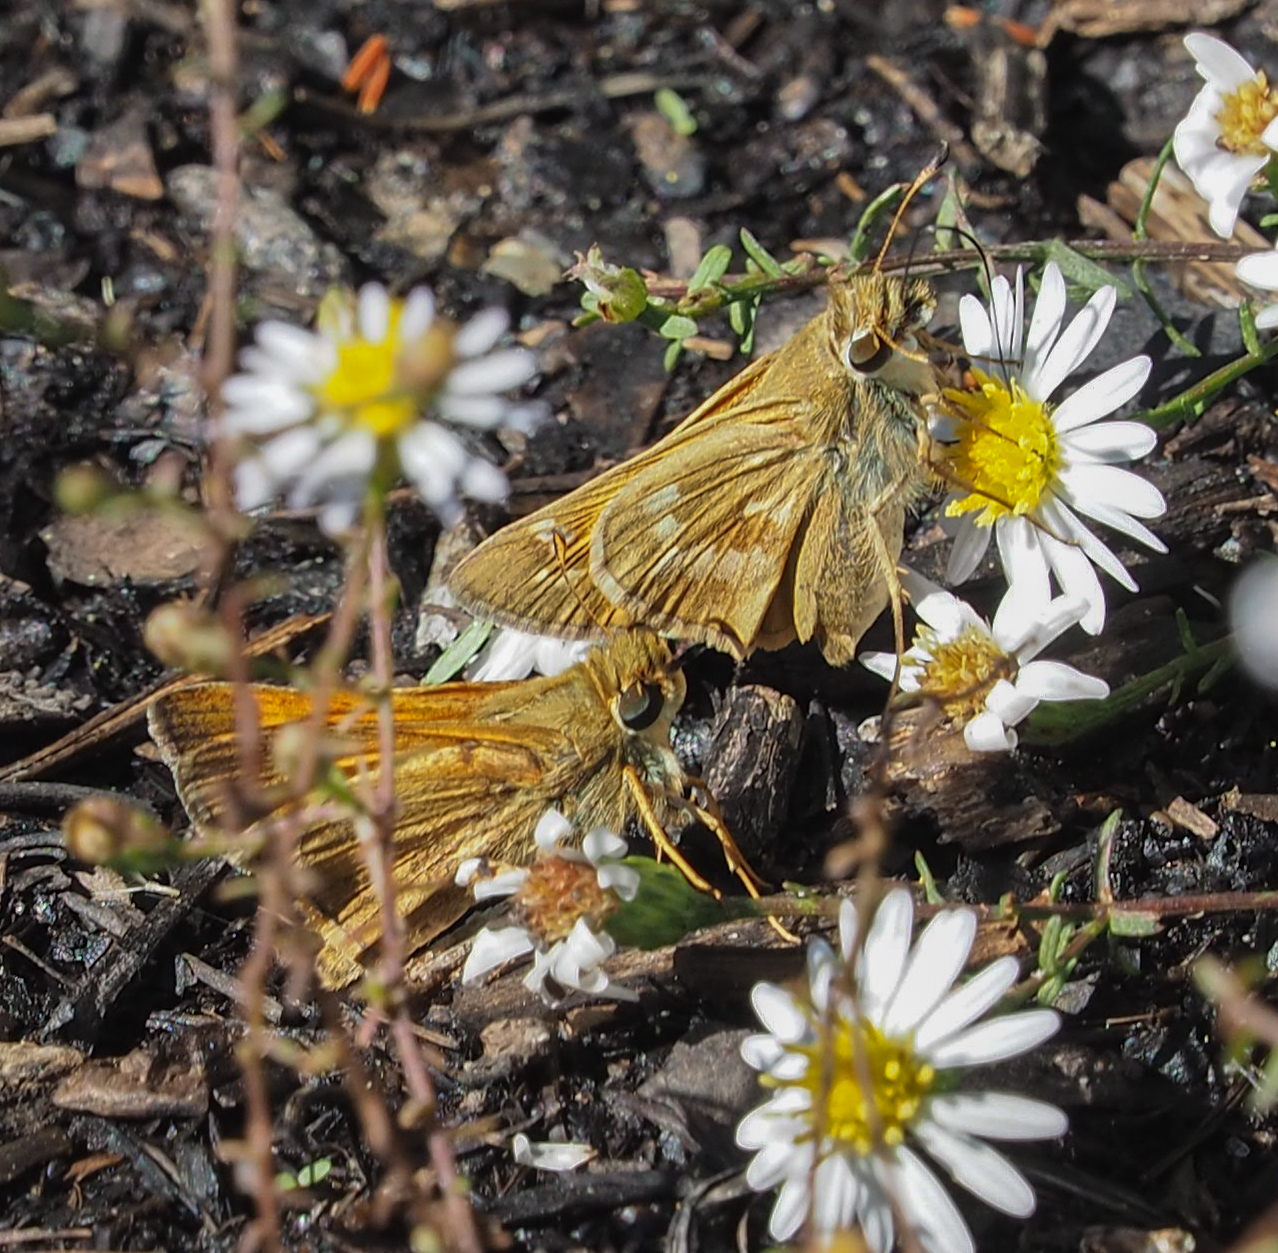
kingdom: Animalia
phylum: Arthropoda
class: Insecta
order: Lepidoptera
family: Hesperiidae
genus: Atalopedes
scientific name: Atalopedes
